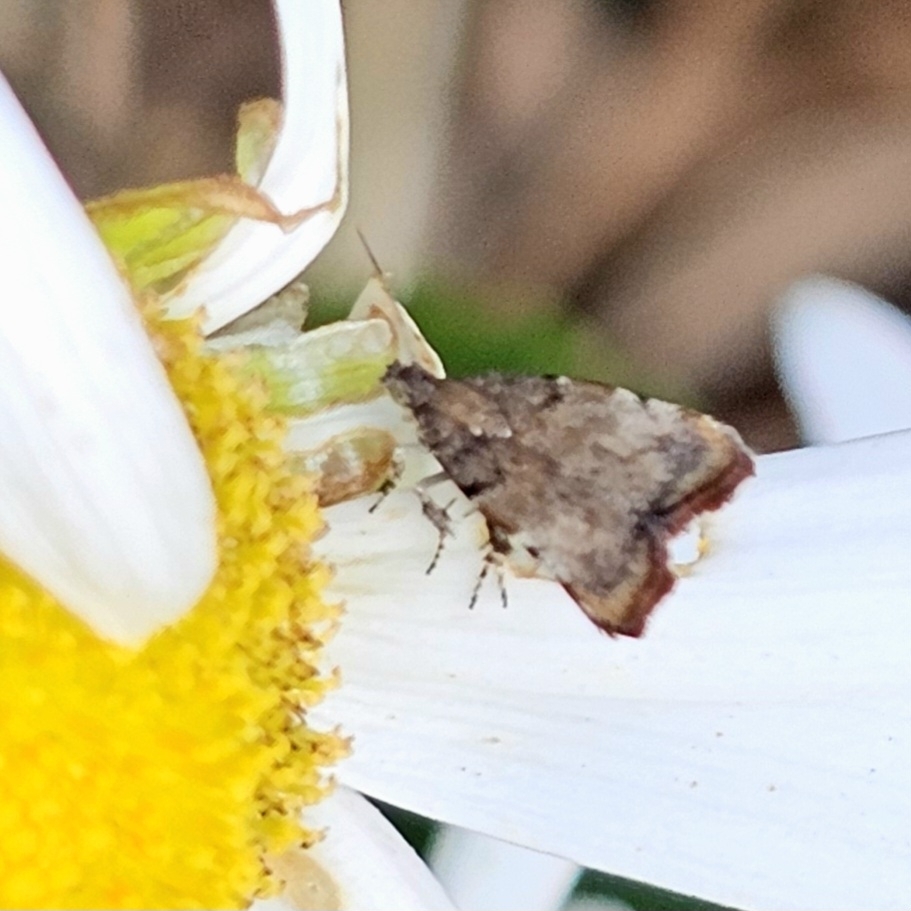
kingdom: Animalia
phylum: Arthropoda
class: Insecta
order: Lepidoptera
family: Choreutidae
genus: Choreutis
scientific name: Choreutis pariana
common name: Apple leaf skeletoniser
